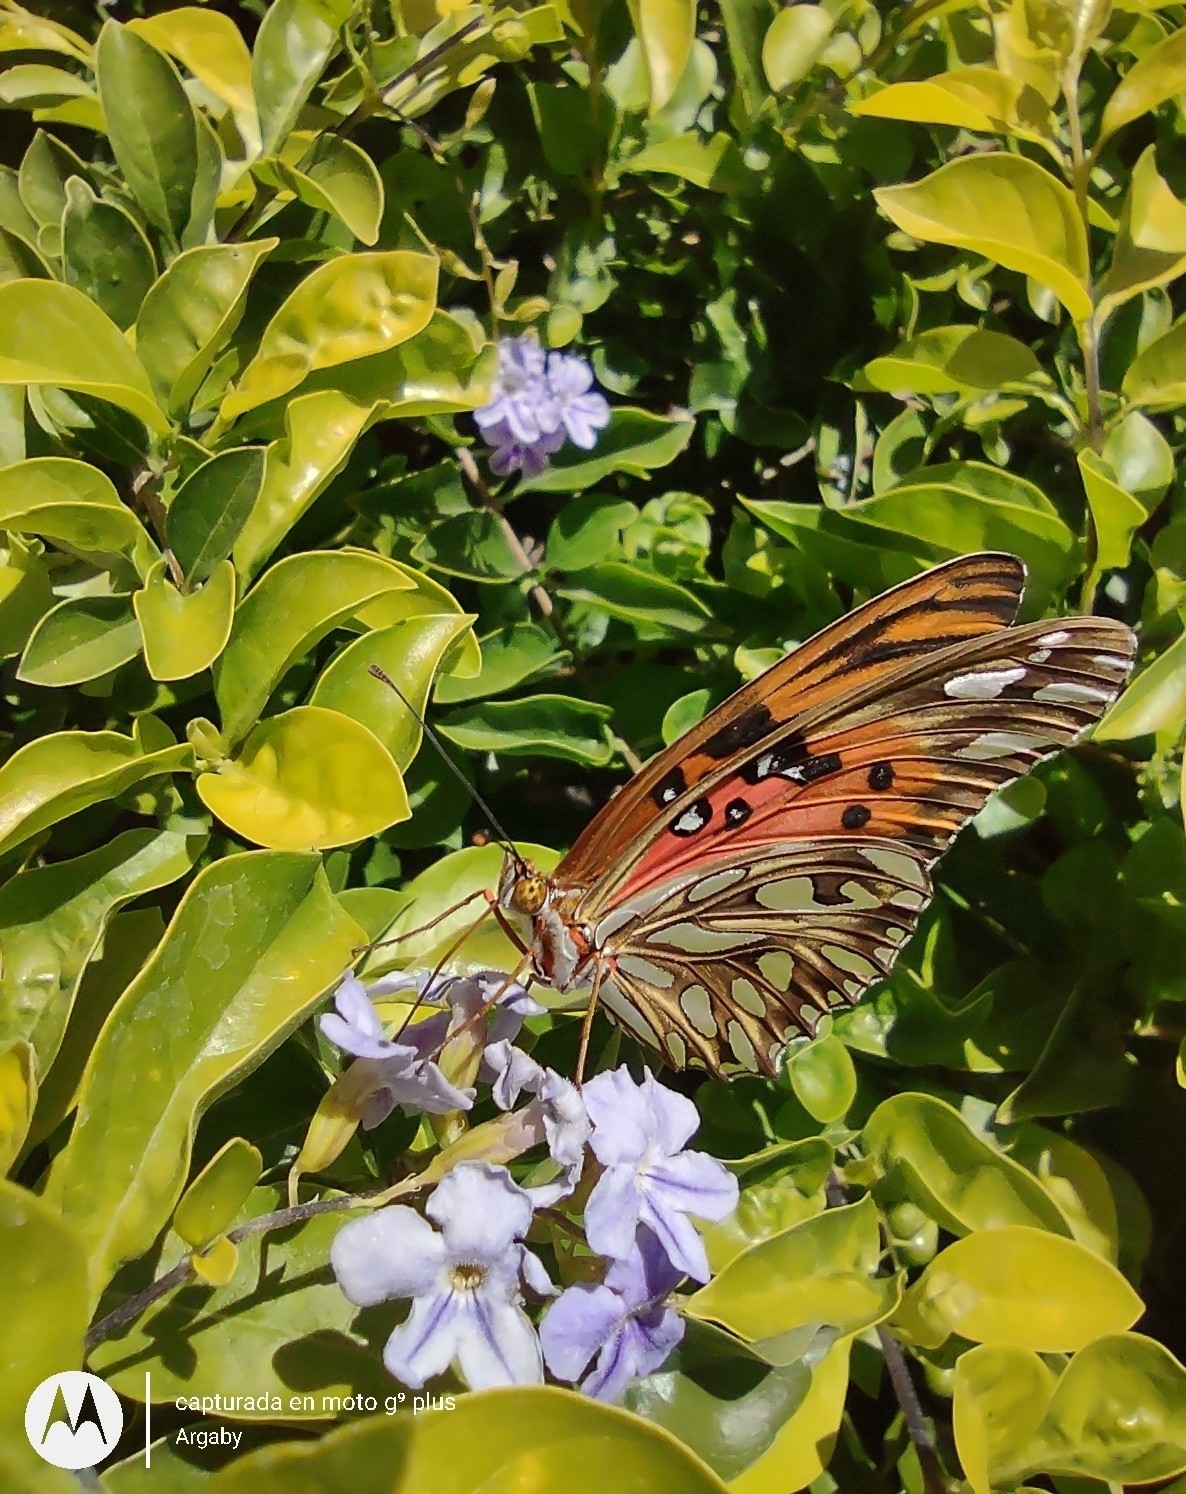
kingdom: Animalia
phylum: Arthropoda
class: Insecta
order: Lepidoptera
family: Nymphalidae
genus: Dione
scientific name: Dione vanillae
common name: Gulf fritillary
